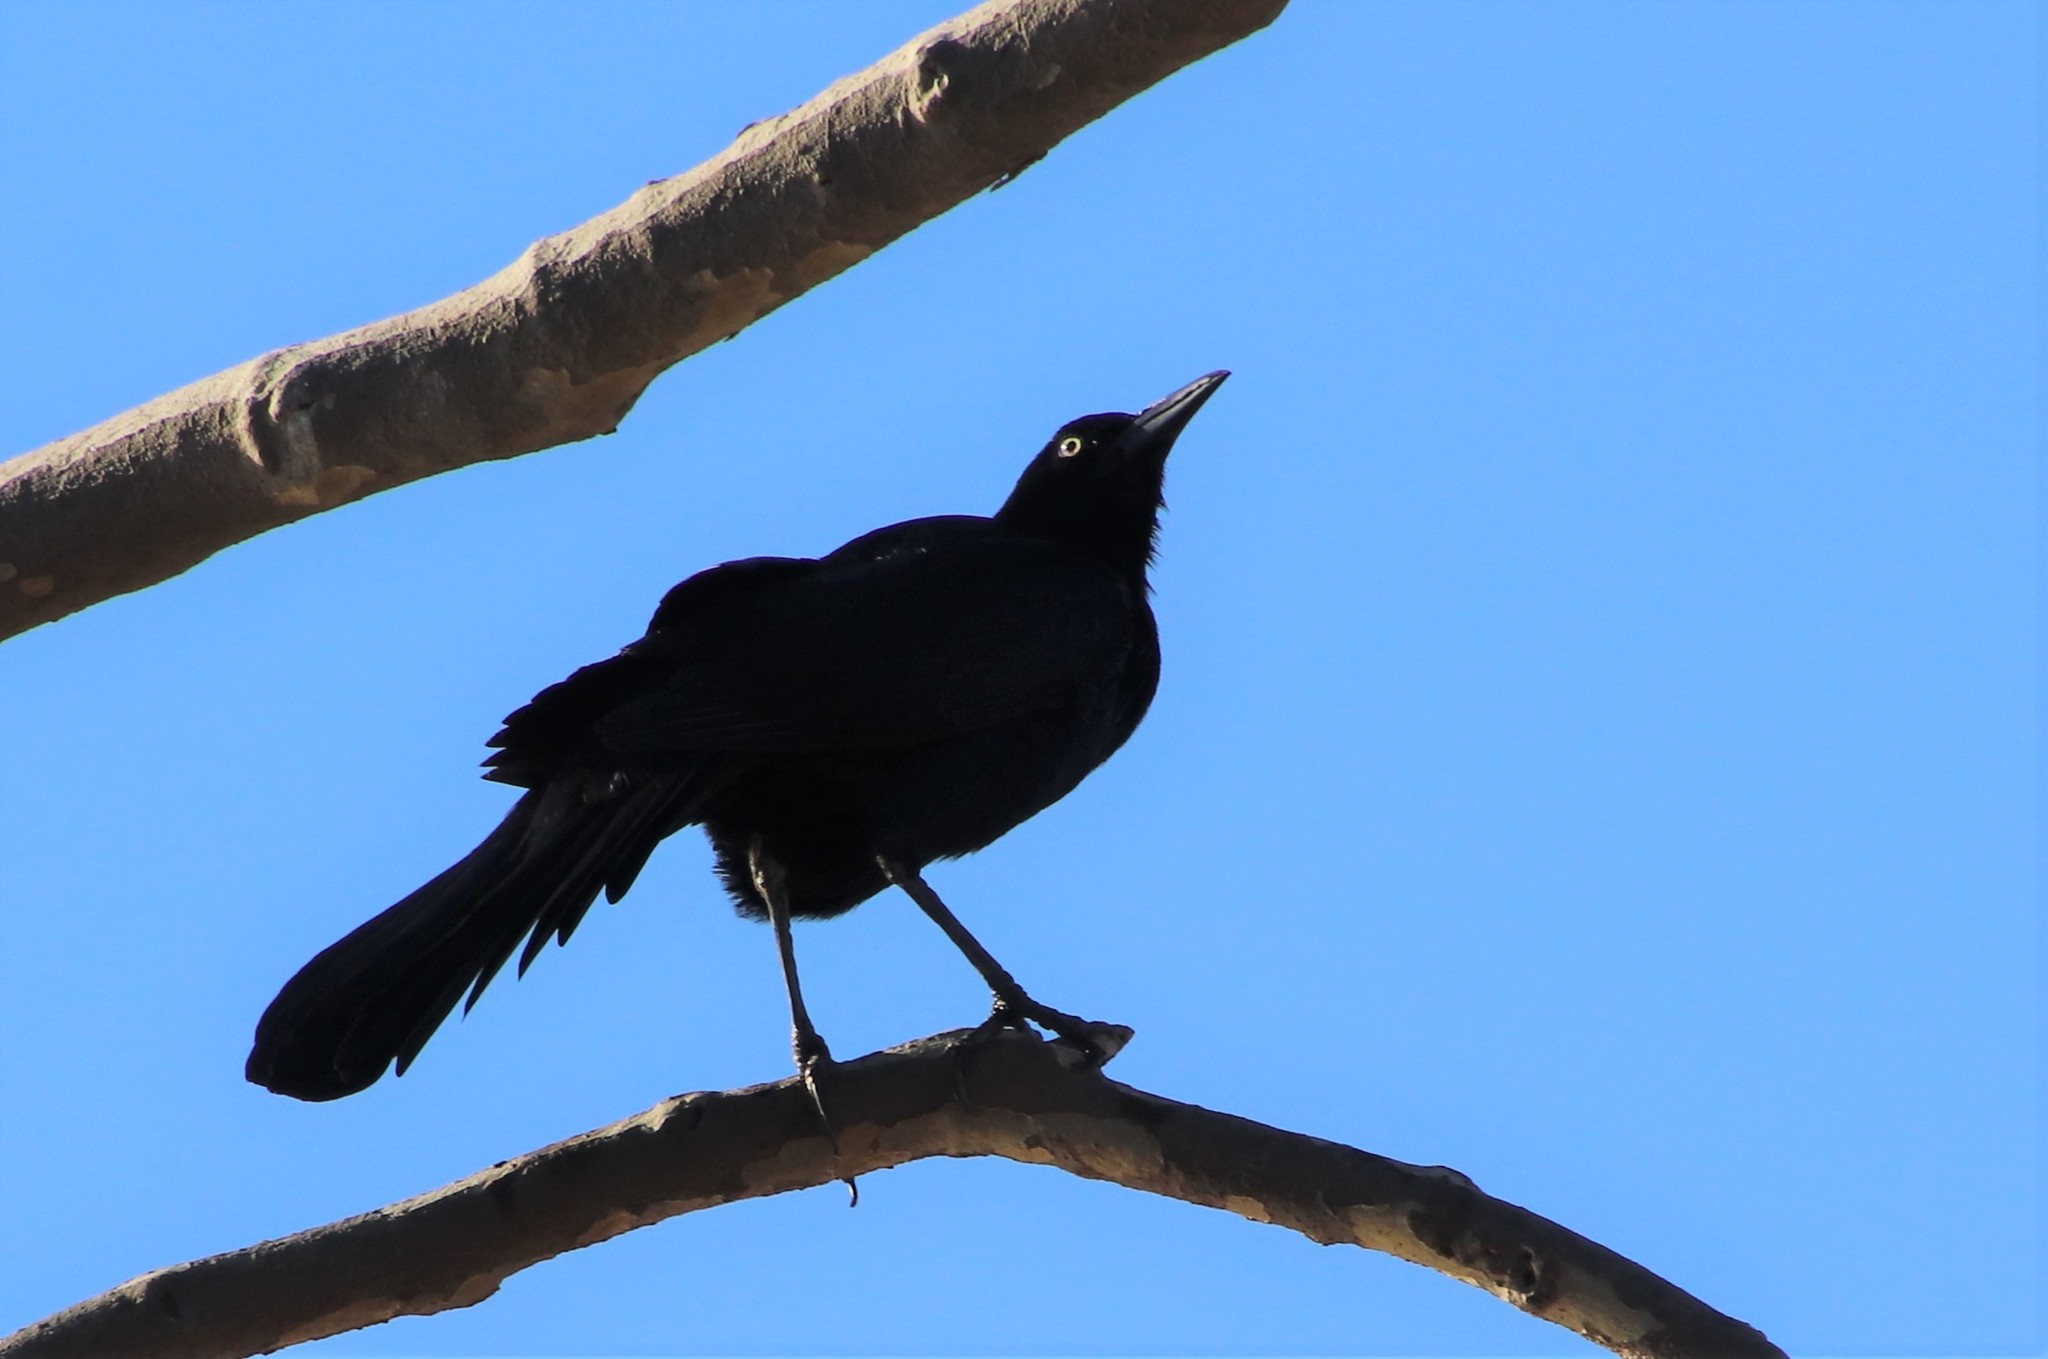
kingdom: Animalia
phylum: Chordata
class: Aves
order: Passeriformes
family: Icteridae
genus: Quiscalus
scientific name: Quiscalus mexicanus
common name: Great-tailed grackle
